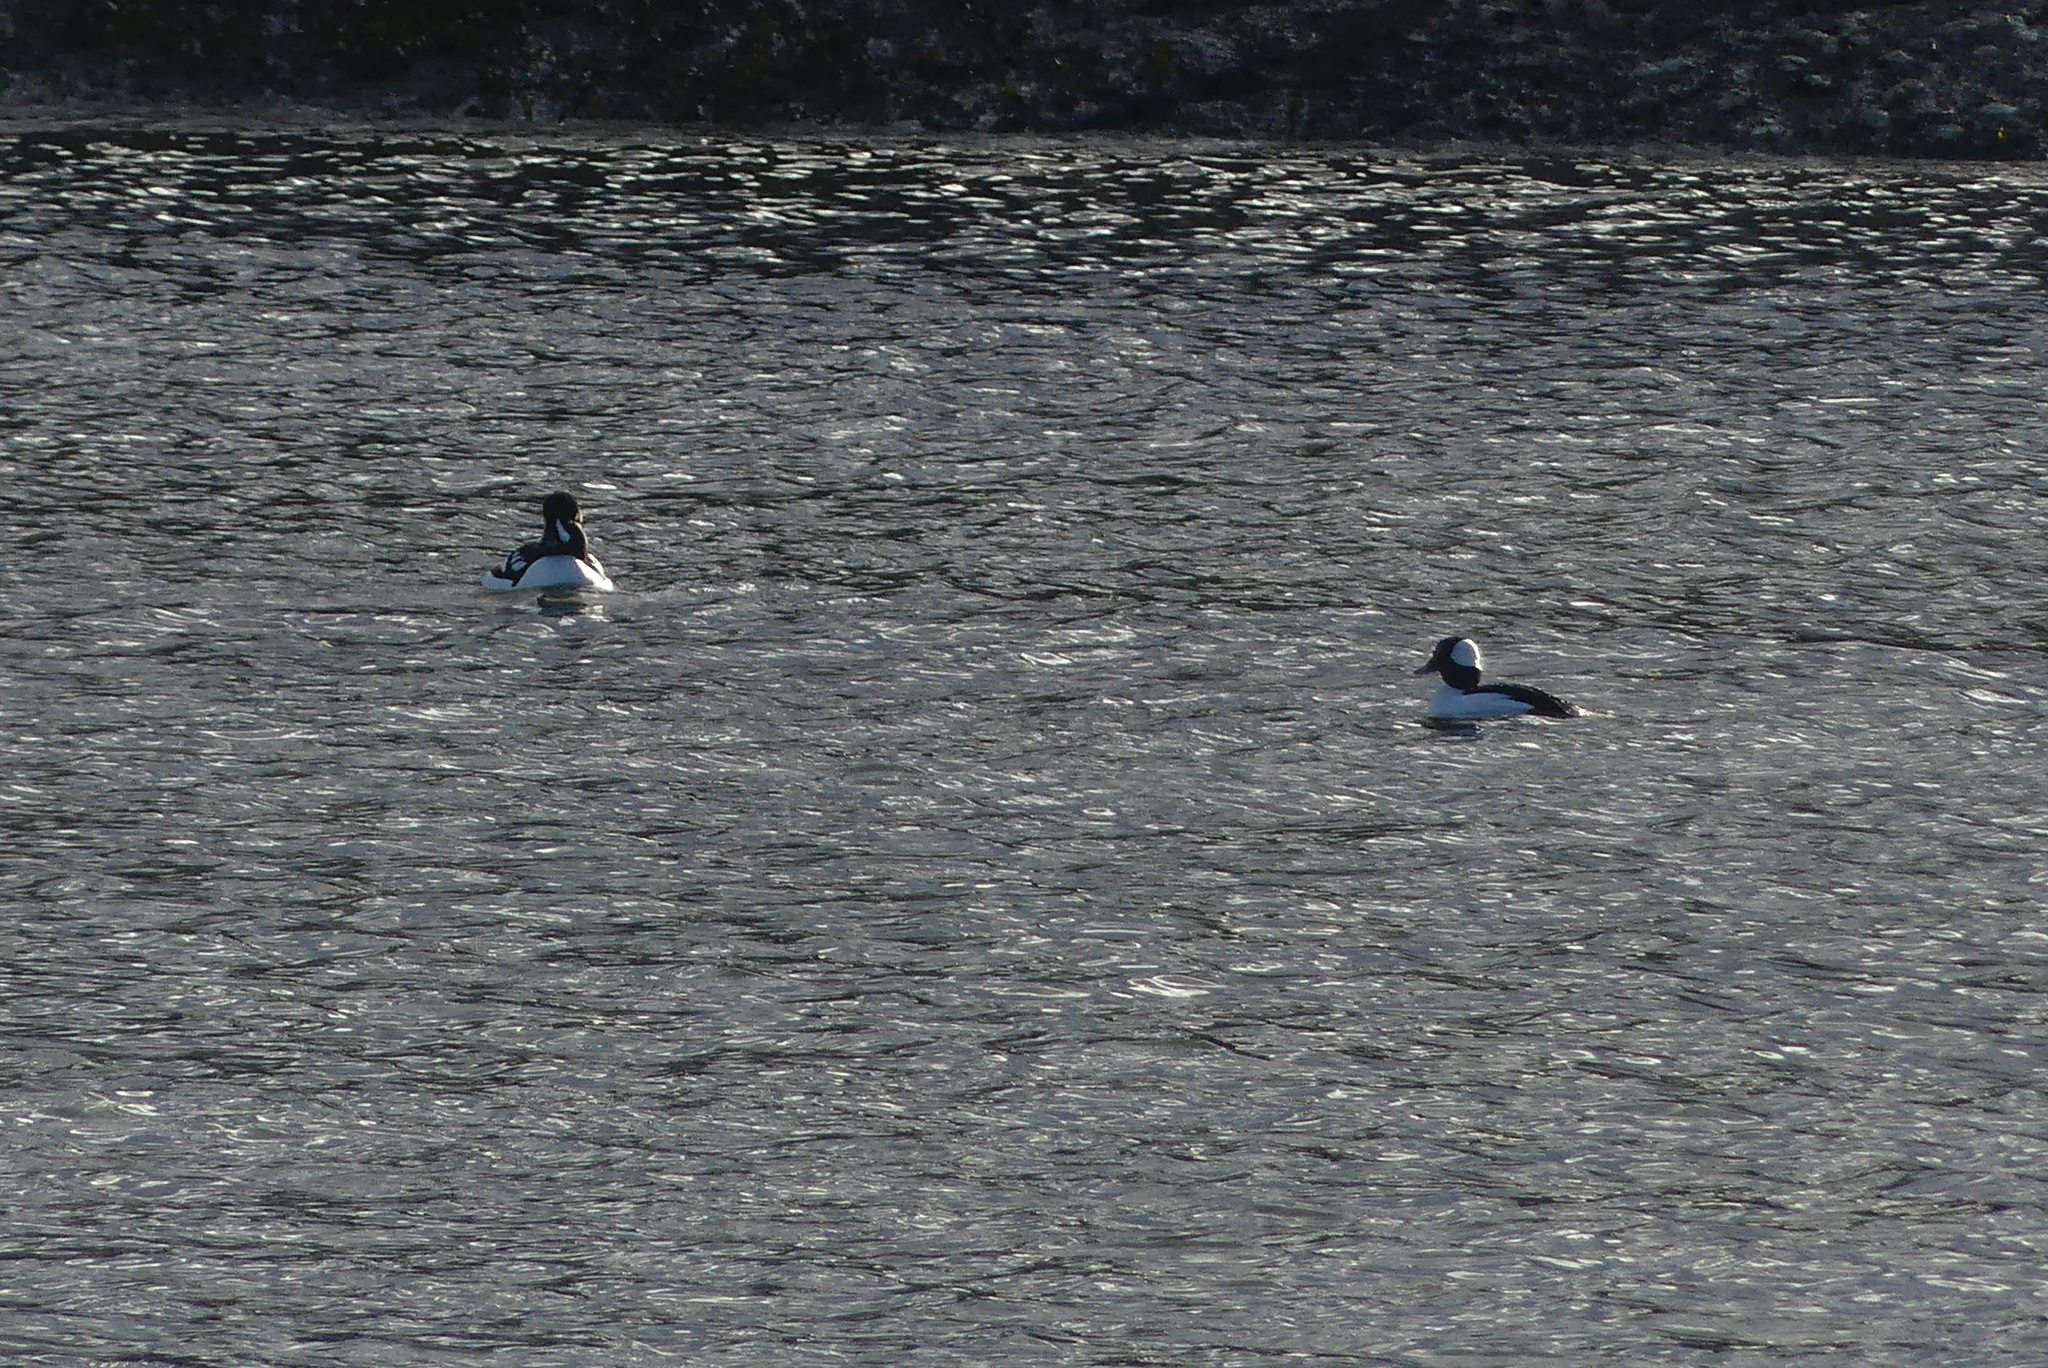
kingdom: Animalia
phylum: Chordata
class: Aves
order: Anseriformes
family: Anatidae
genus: Bucephala
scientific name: Bucephala albeola
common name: Bufflehead
